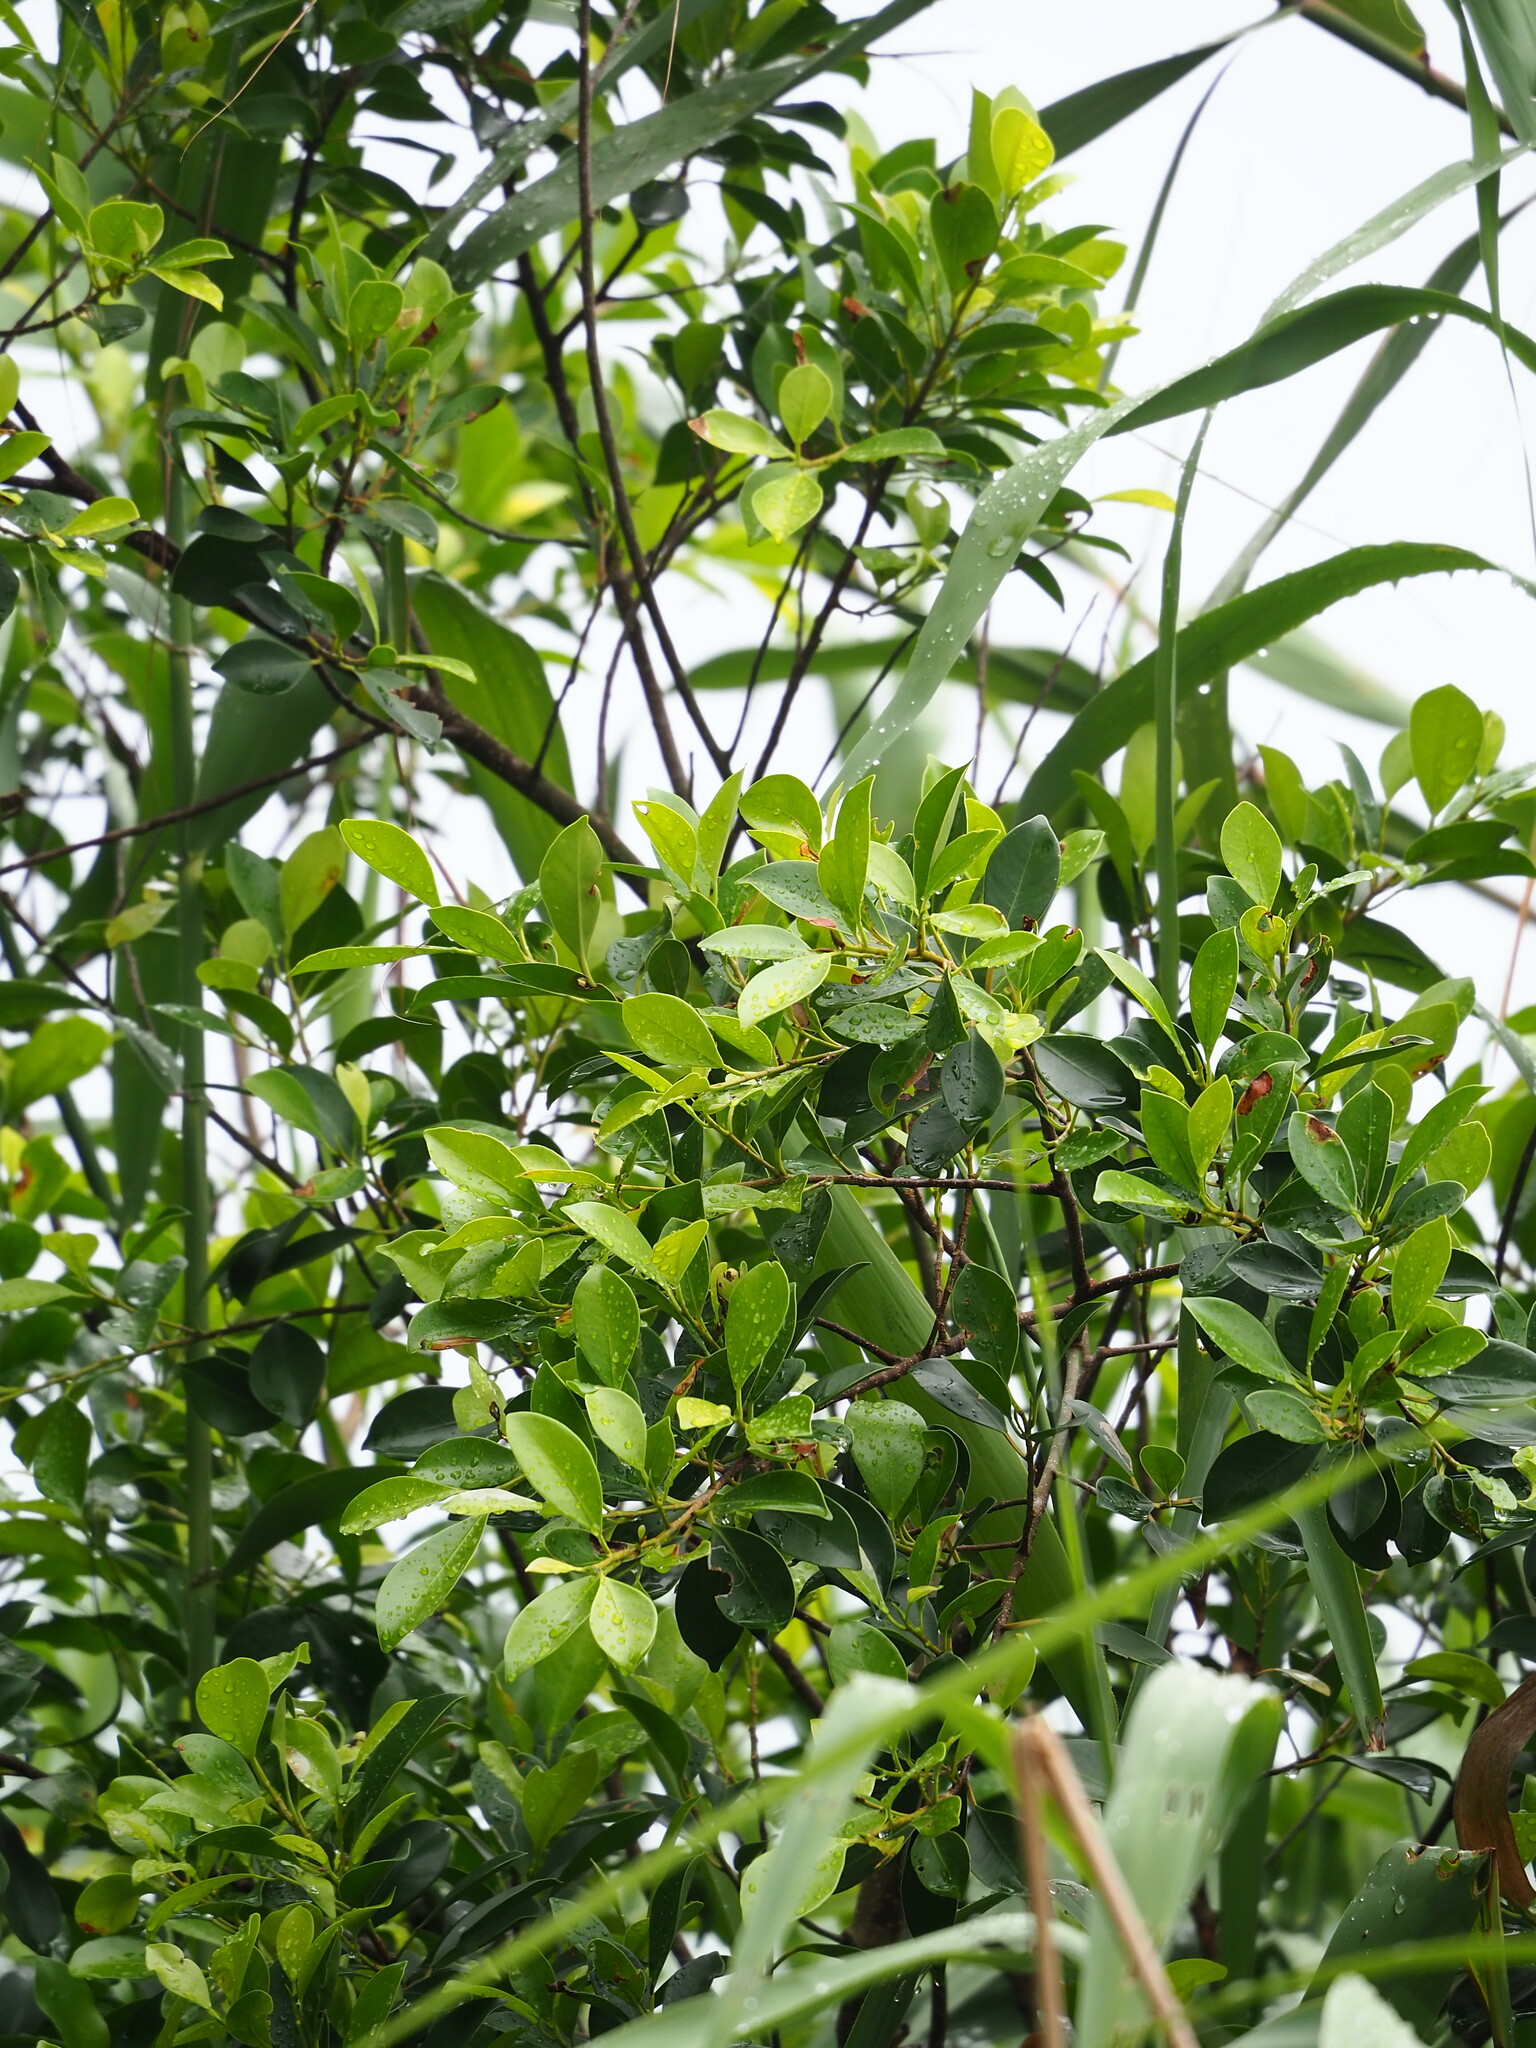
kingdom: Plantae
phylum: Tracheophyta
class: Magnoliopsida
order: Rosales
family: Moraceae
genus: Ficus
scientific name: Ficus microcarpa
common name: Chinese banyan
